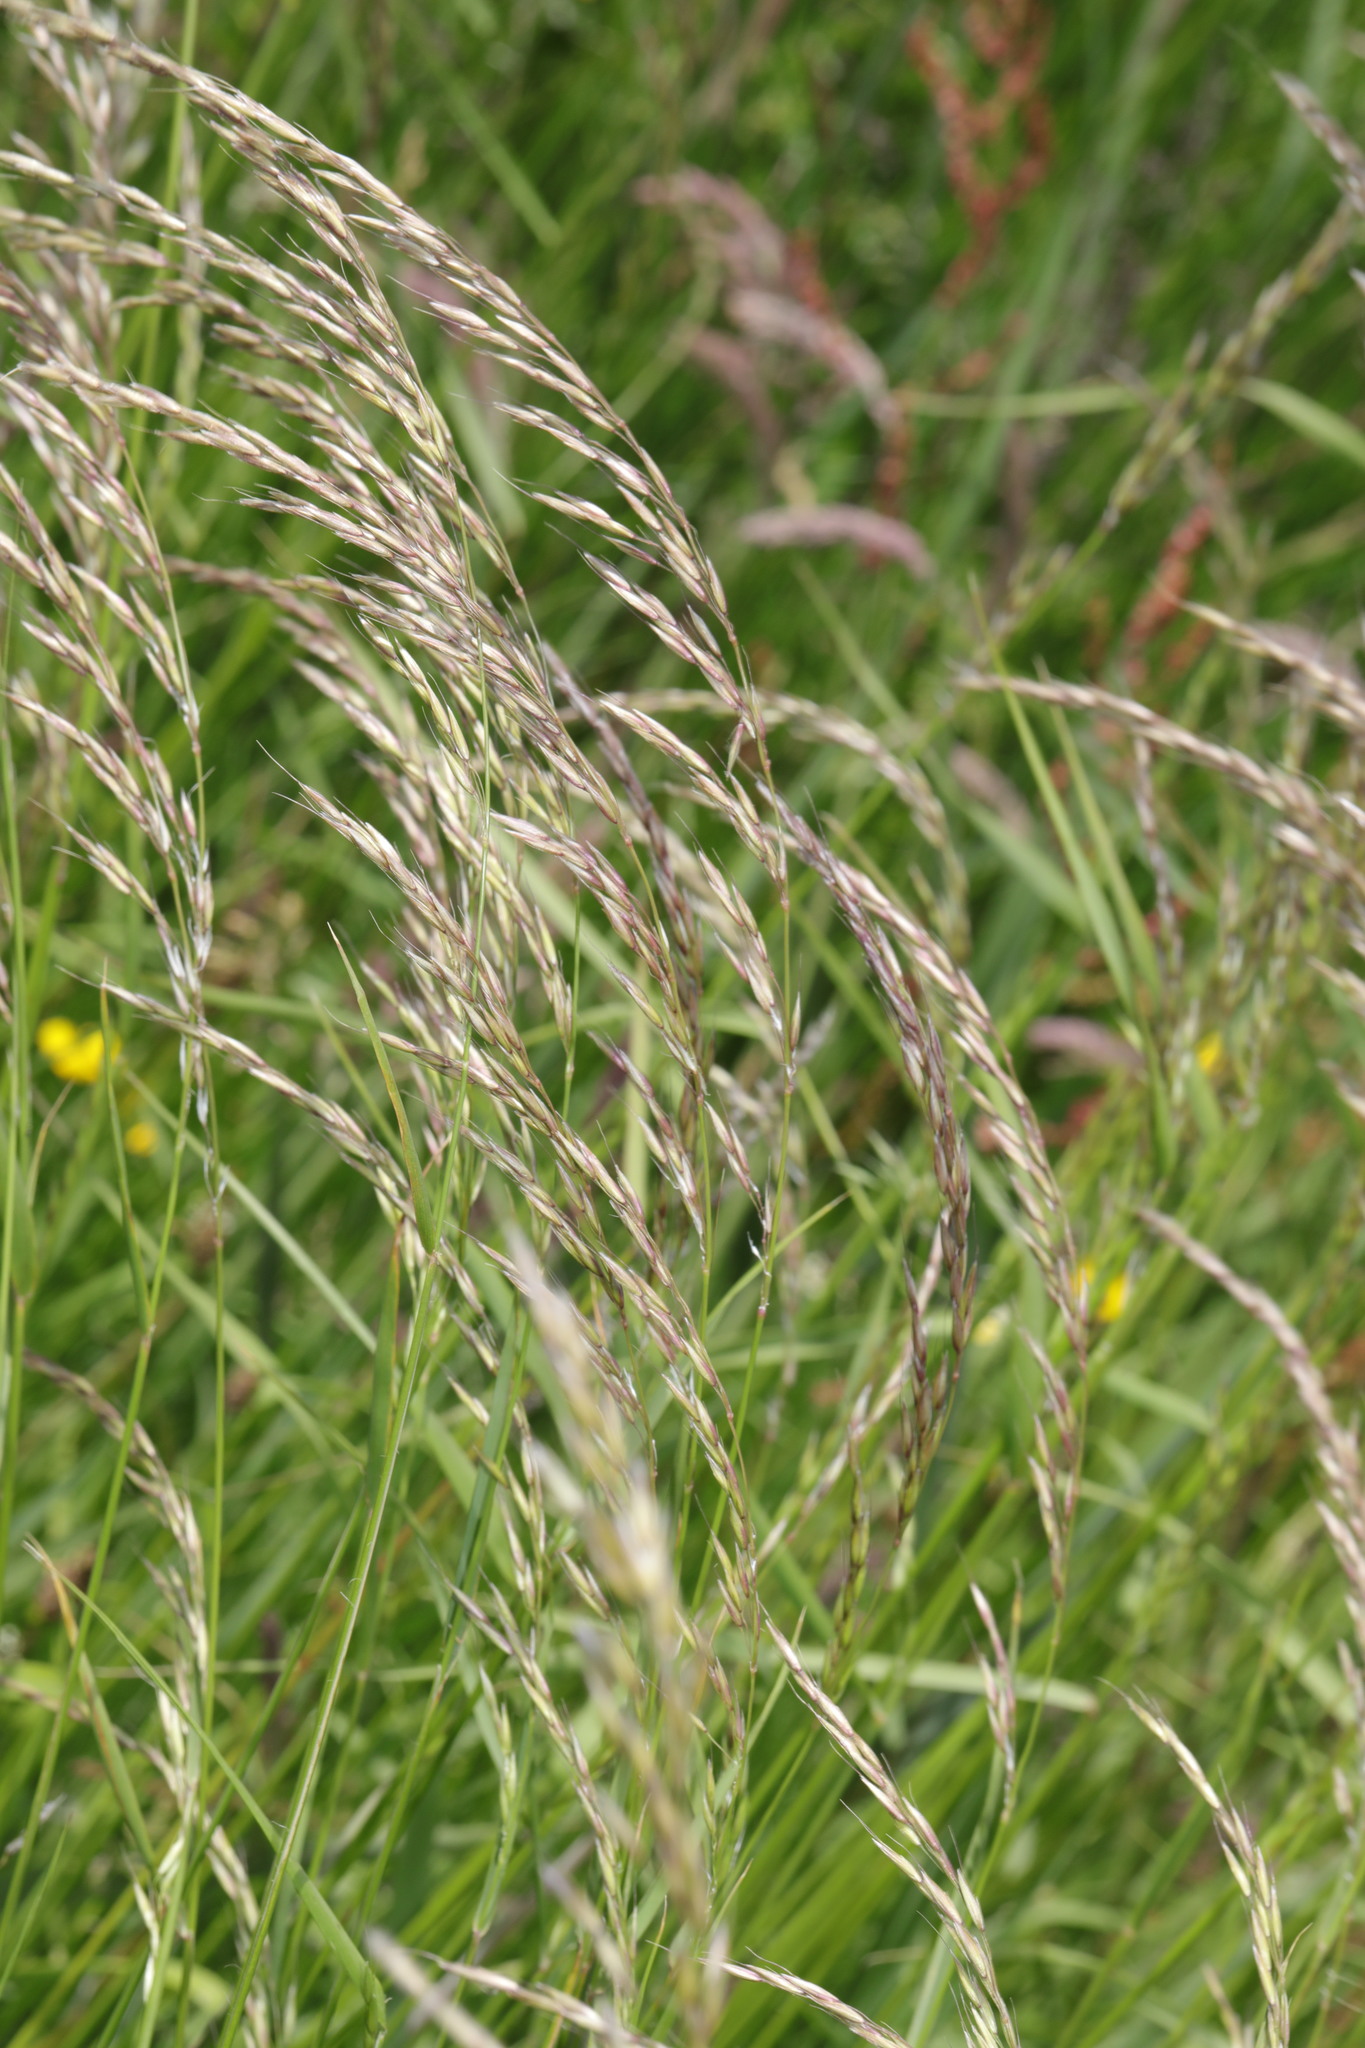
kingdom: Plantae
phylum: Tracheophyta
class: Liliopsida
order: Poales
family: Poaceae
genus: Arrhenatherum
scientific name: Arrhenatherum elatius
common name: Tall oatgrass
